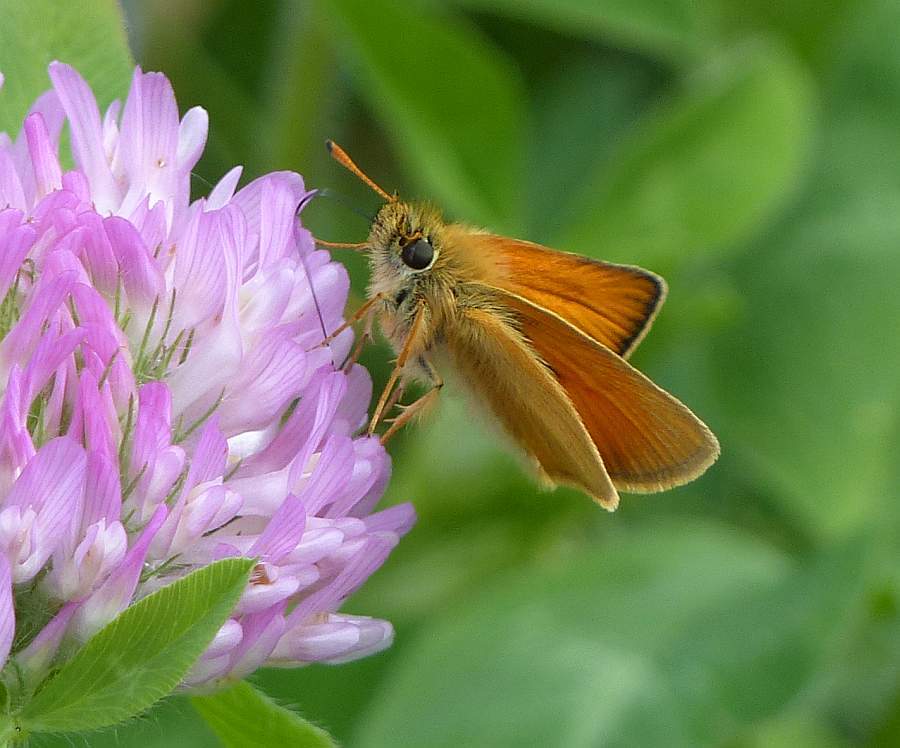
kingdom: Animalia
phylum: Arthropoda
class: Insecta
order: Lepidoptera
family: Hesperiidae
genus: Thymelicus
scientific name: Thymelicus lineola
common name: Essex skipper
